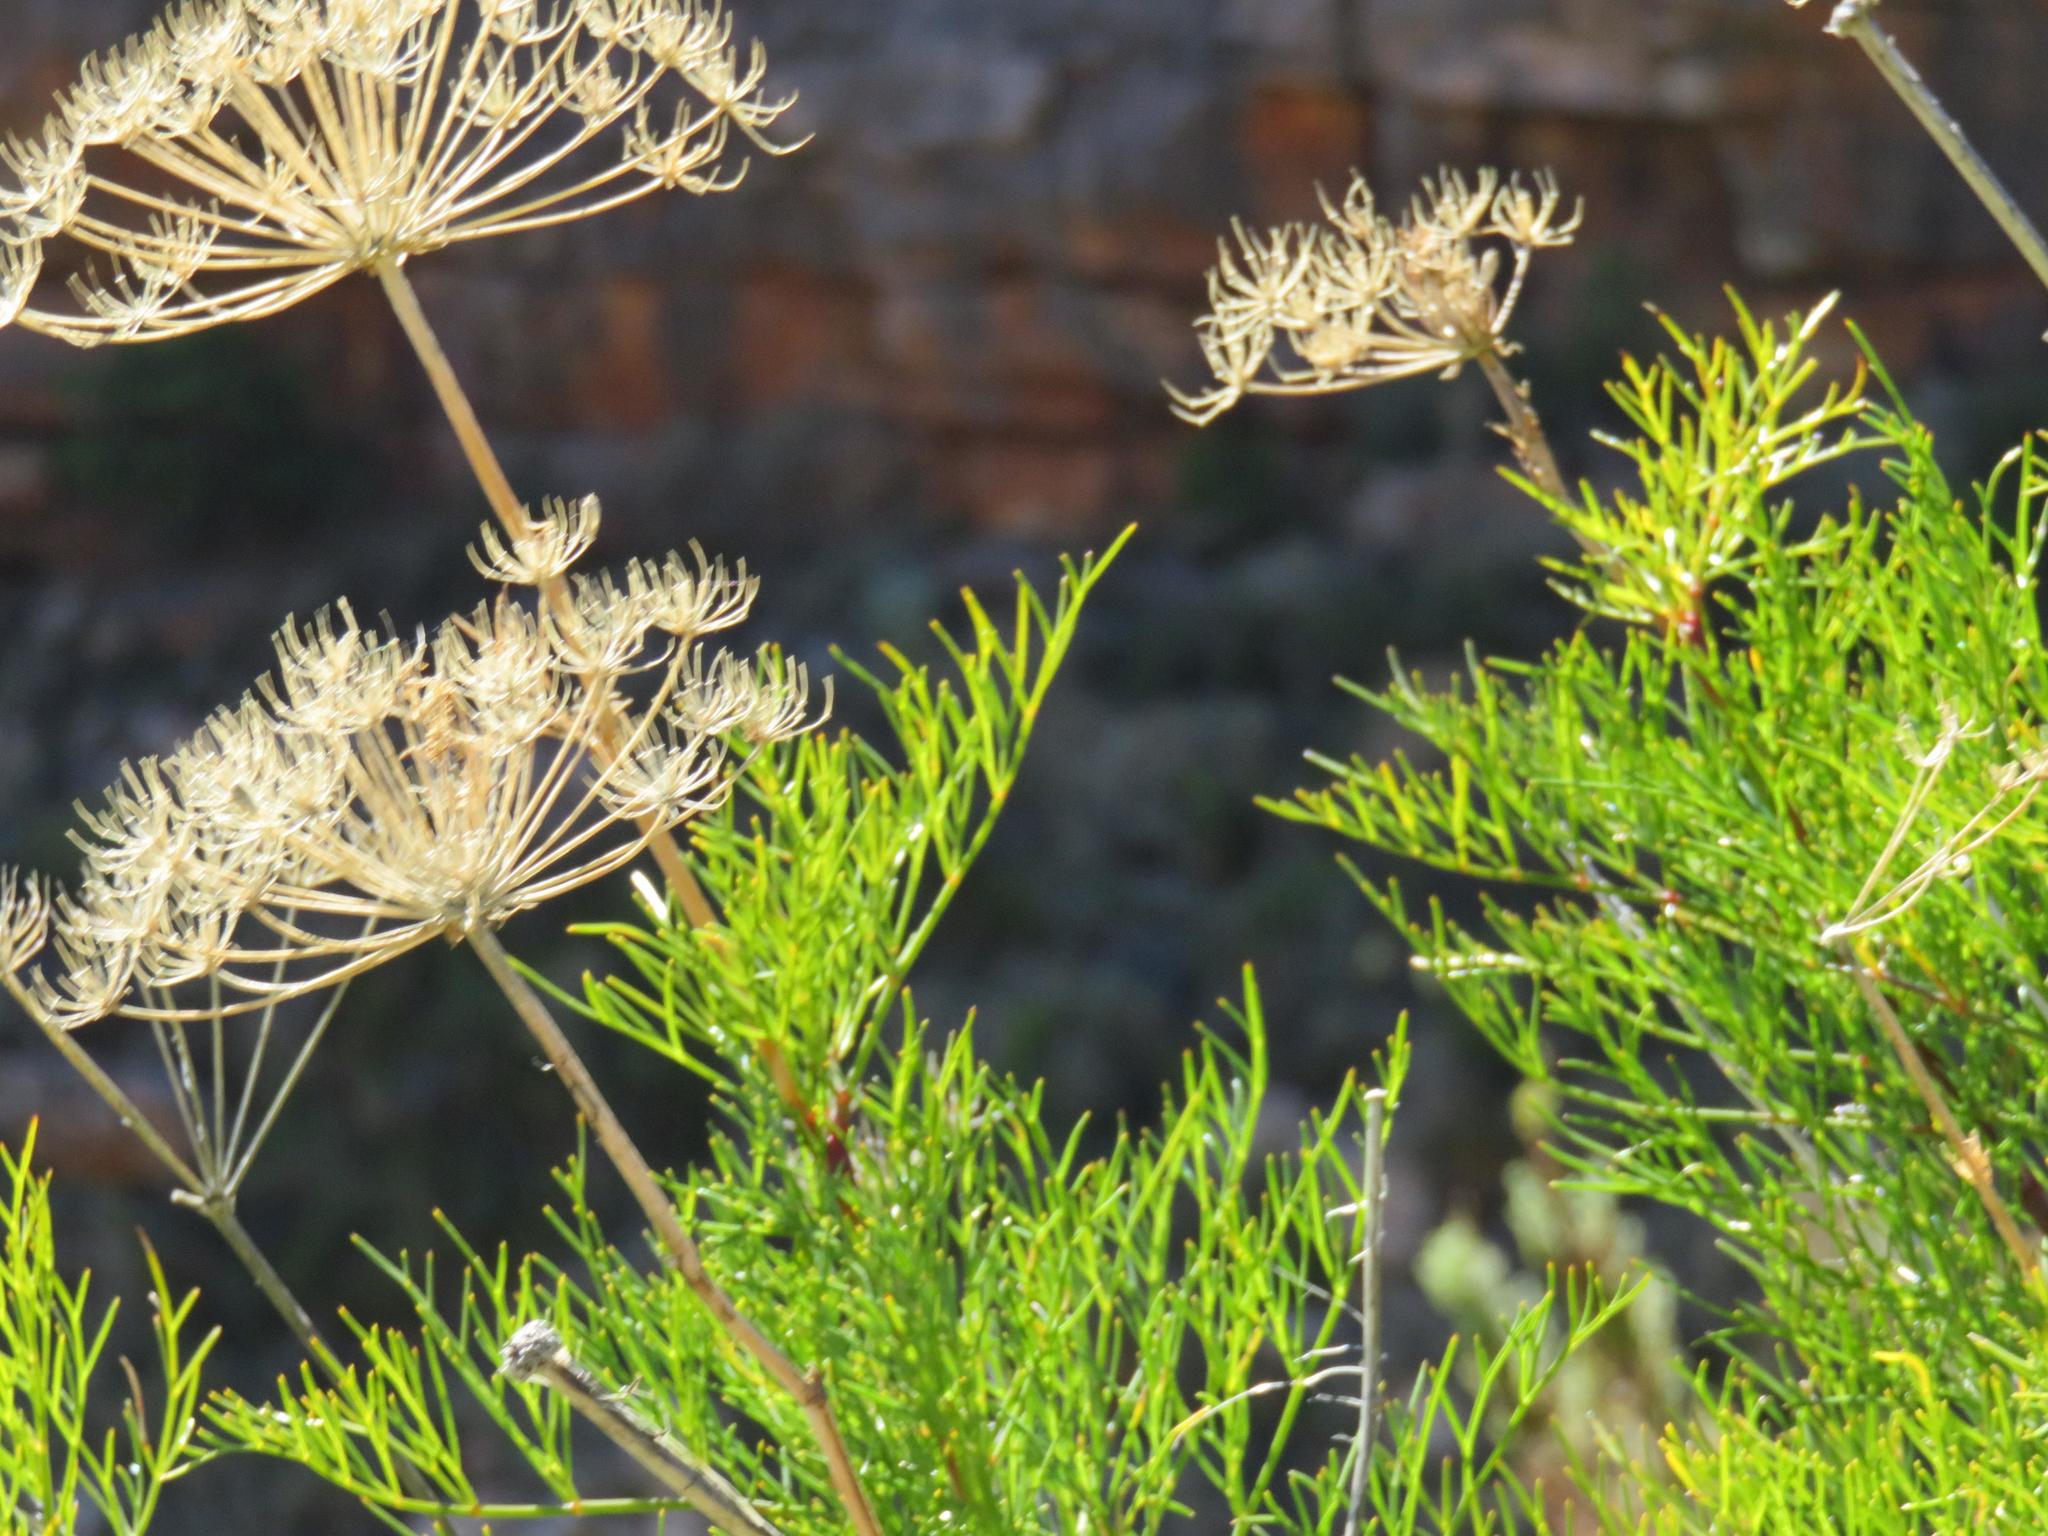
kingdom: Plantae
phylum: Tracheophyta
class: Magnoliopsida
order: Apiales
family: Apiaceae
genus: Notobubon
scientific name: Notobubon tenuifolium
